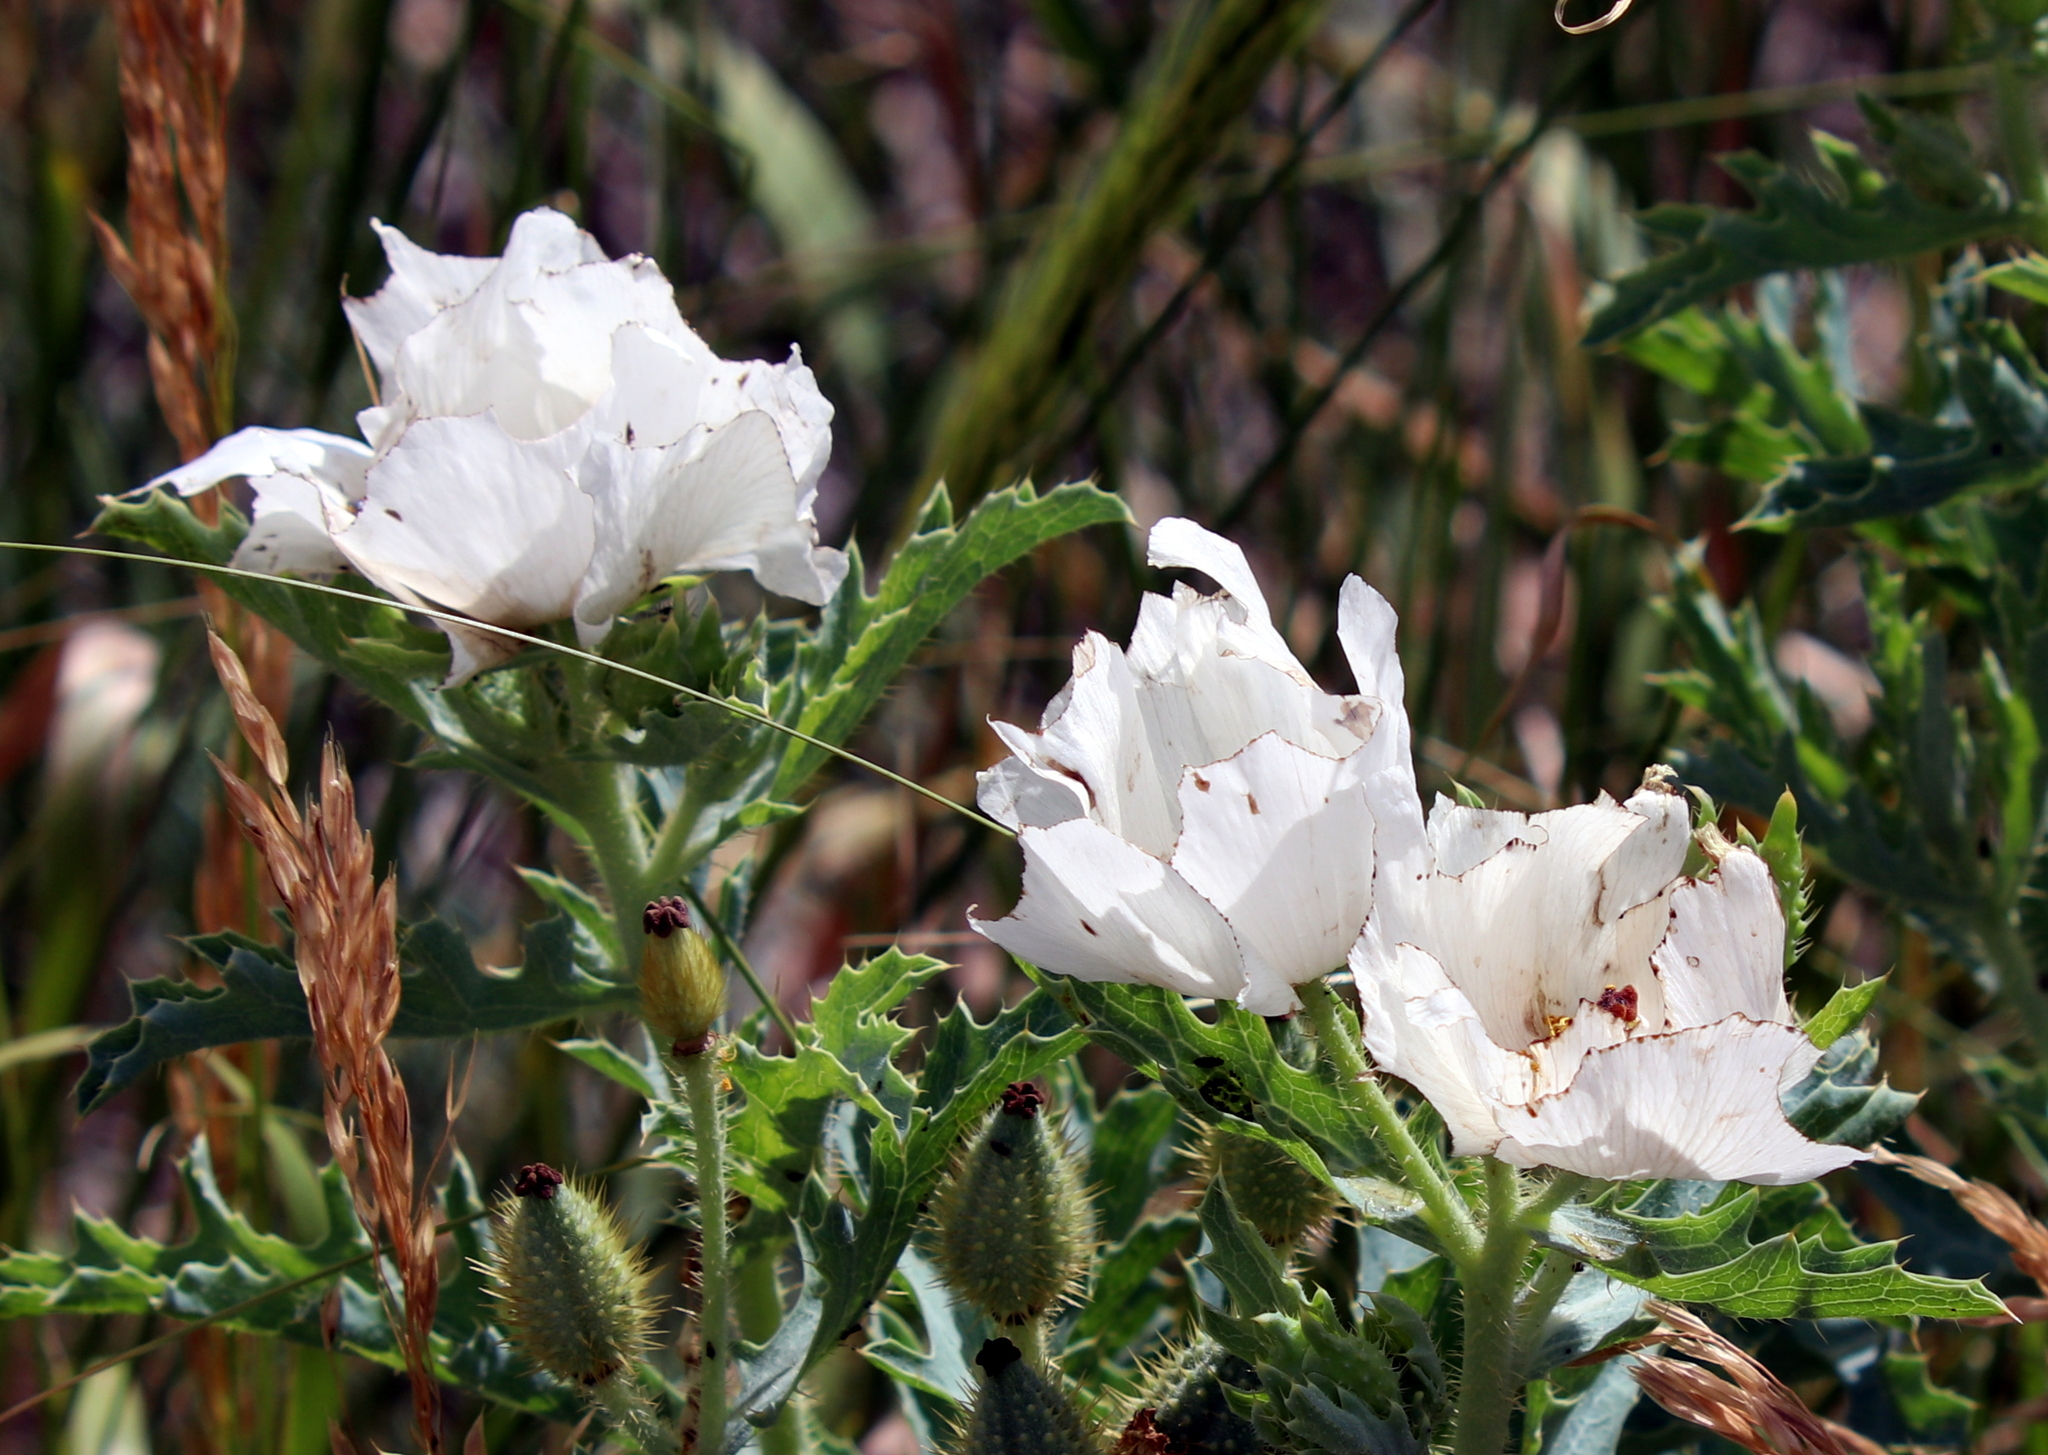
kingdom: Plantae
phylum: Tracheophyta
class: Magnoliopsida
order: Ranunculales
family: Papaveraceae
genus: Argemone
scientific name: Argemone polyanthemos
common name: Plains prickly-poppy
